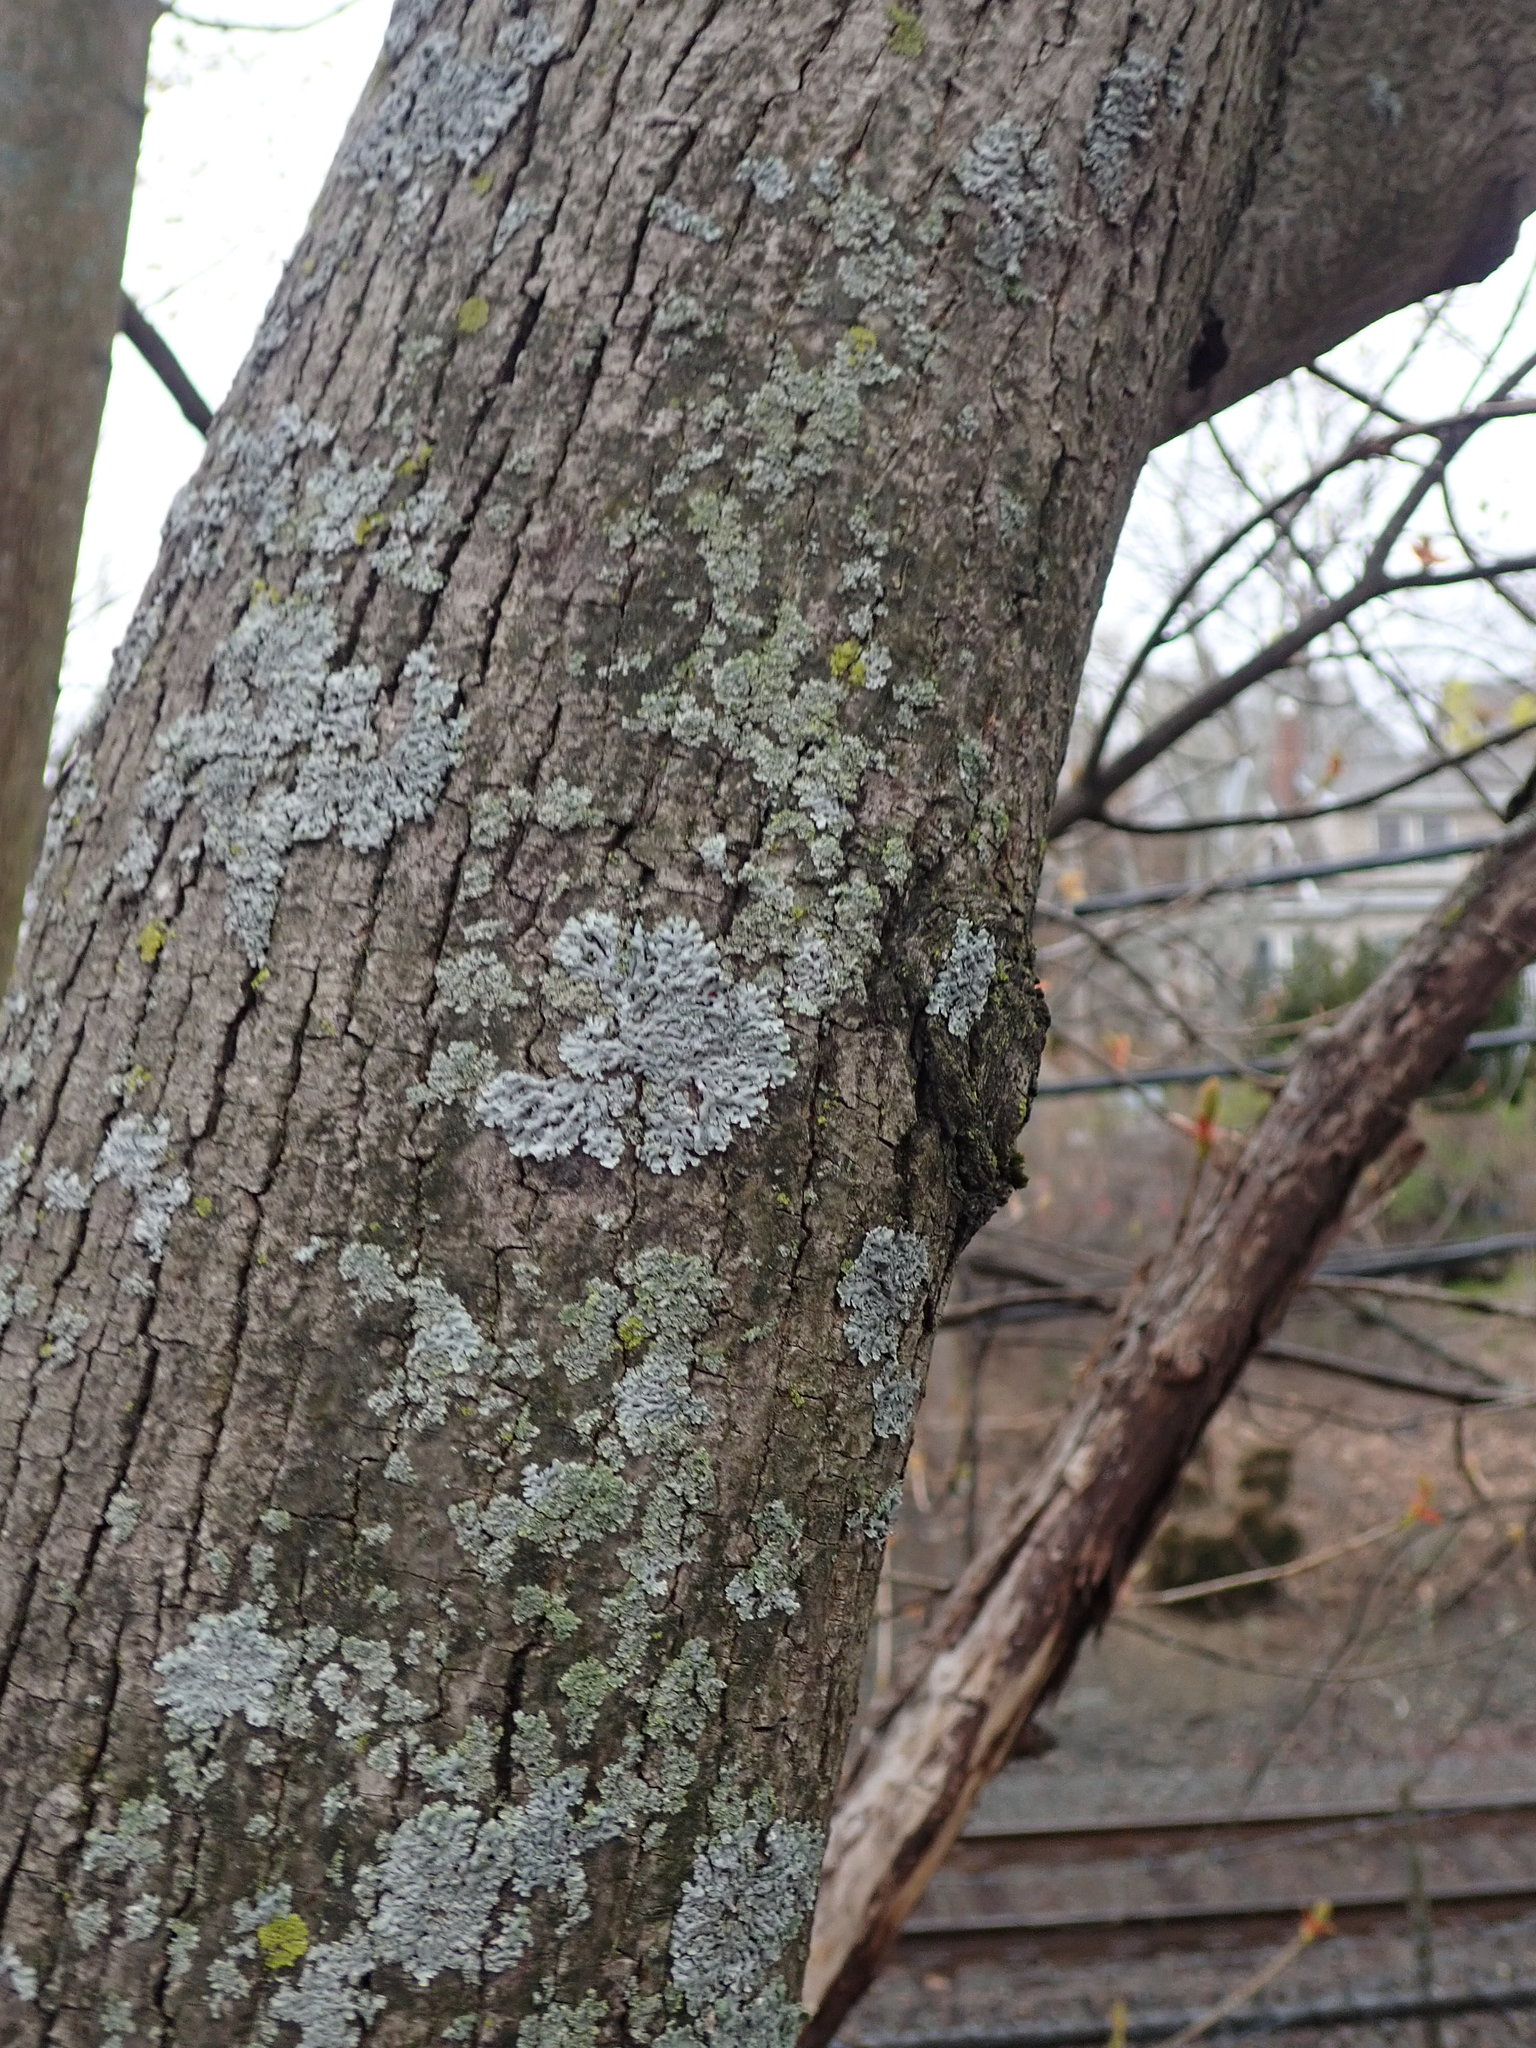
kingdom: Plantae
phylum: Tracheophyta
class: Magnoliopsida
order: Sapindales
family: Sapindaceae
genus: Acer
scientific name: Acer platanoides
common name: Norway maple
